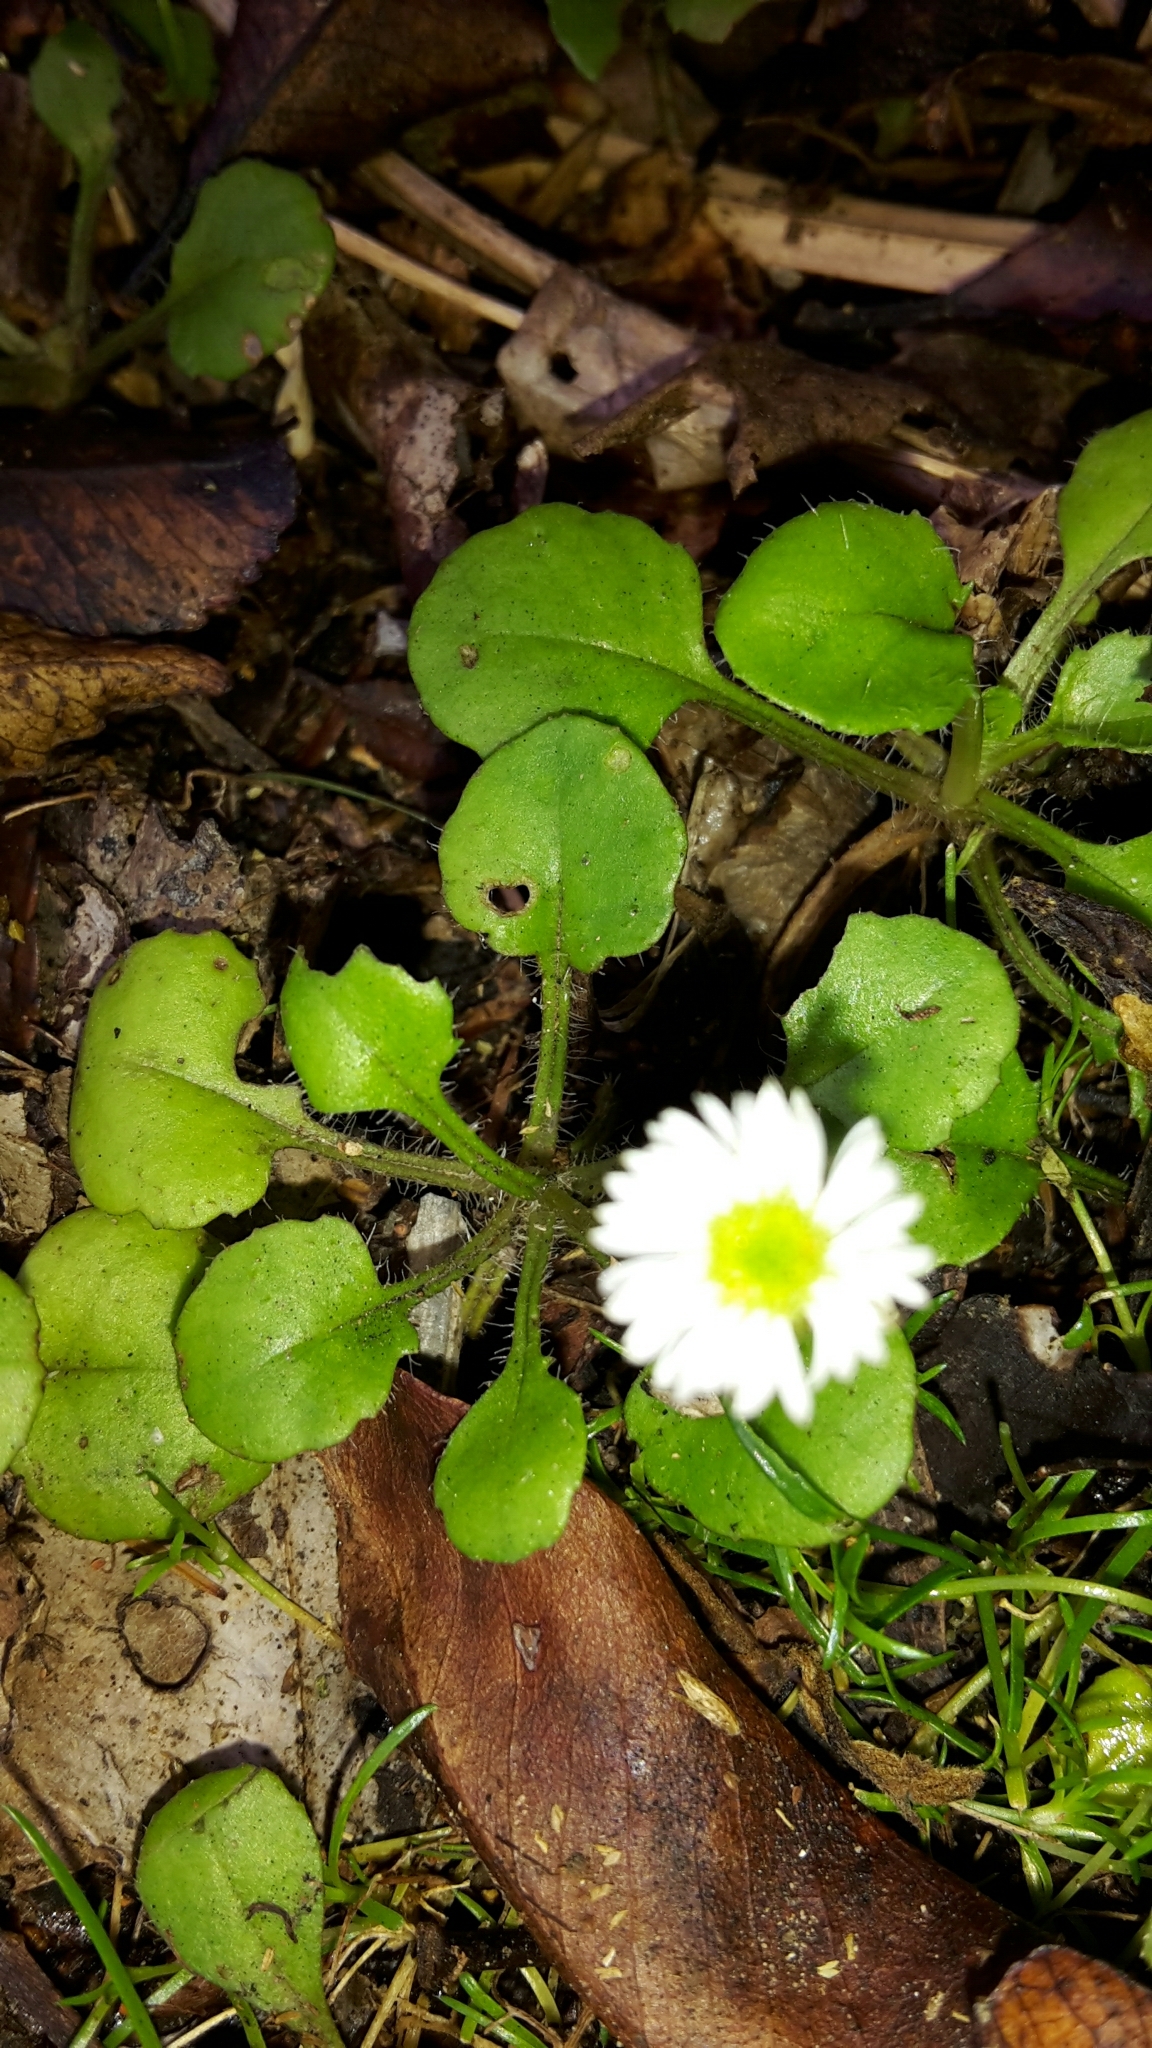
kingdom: Plantae
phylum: Tracheophyta
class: Magnoliopsida
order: Asterales
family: Asteraceae
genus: Lagenophora
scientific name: Lagenophora pumila
